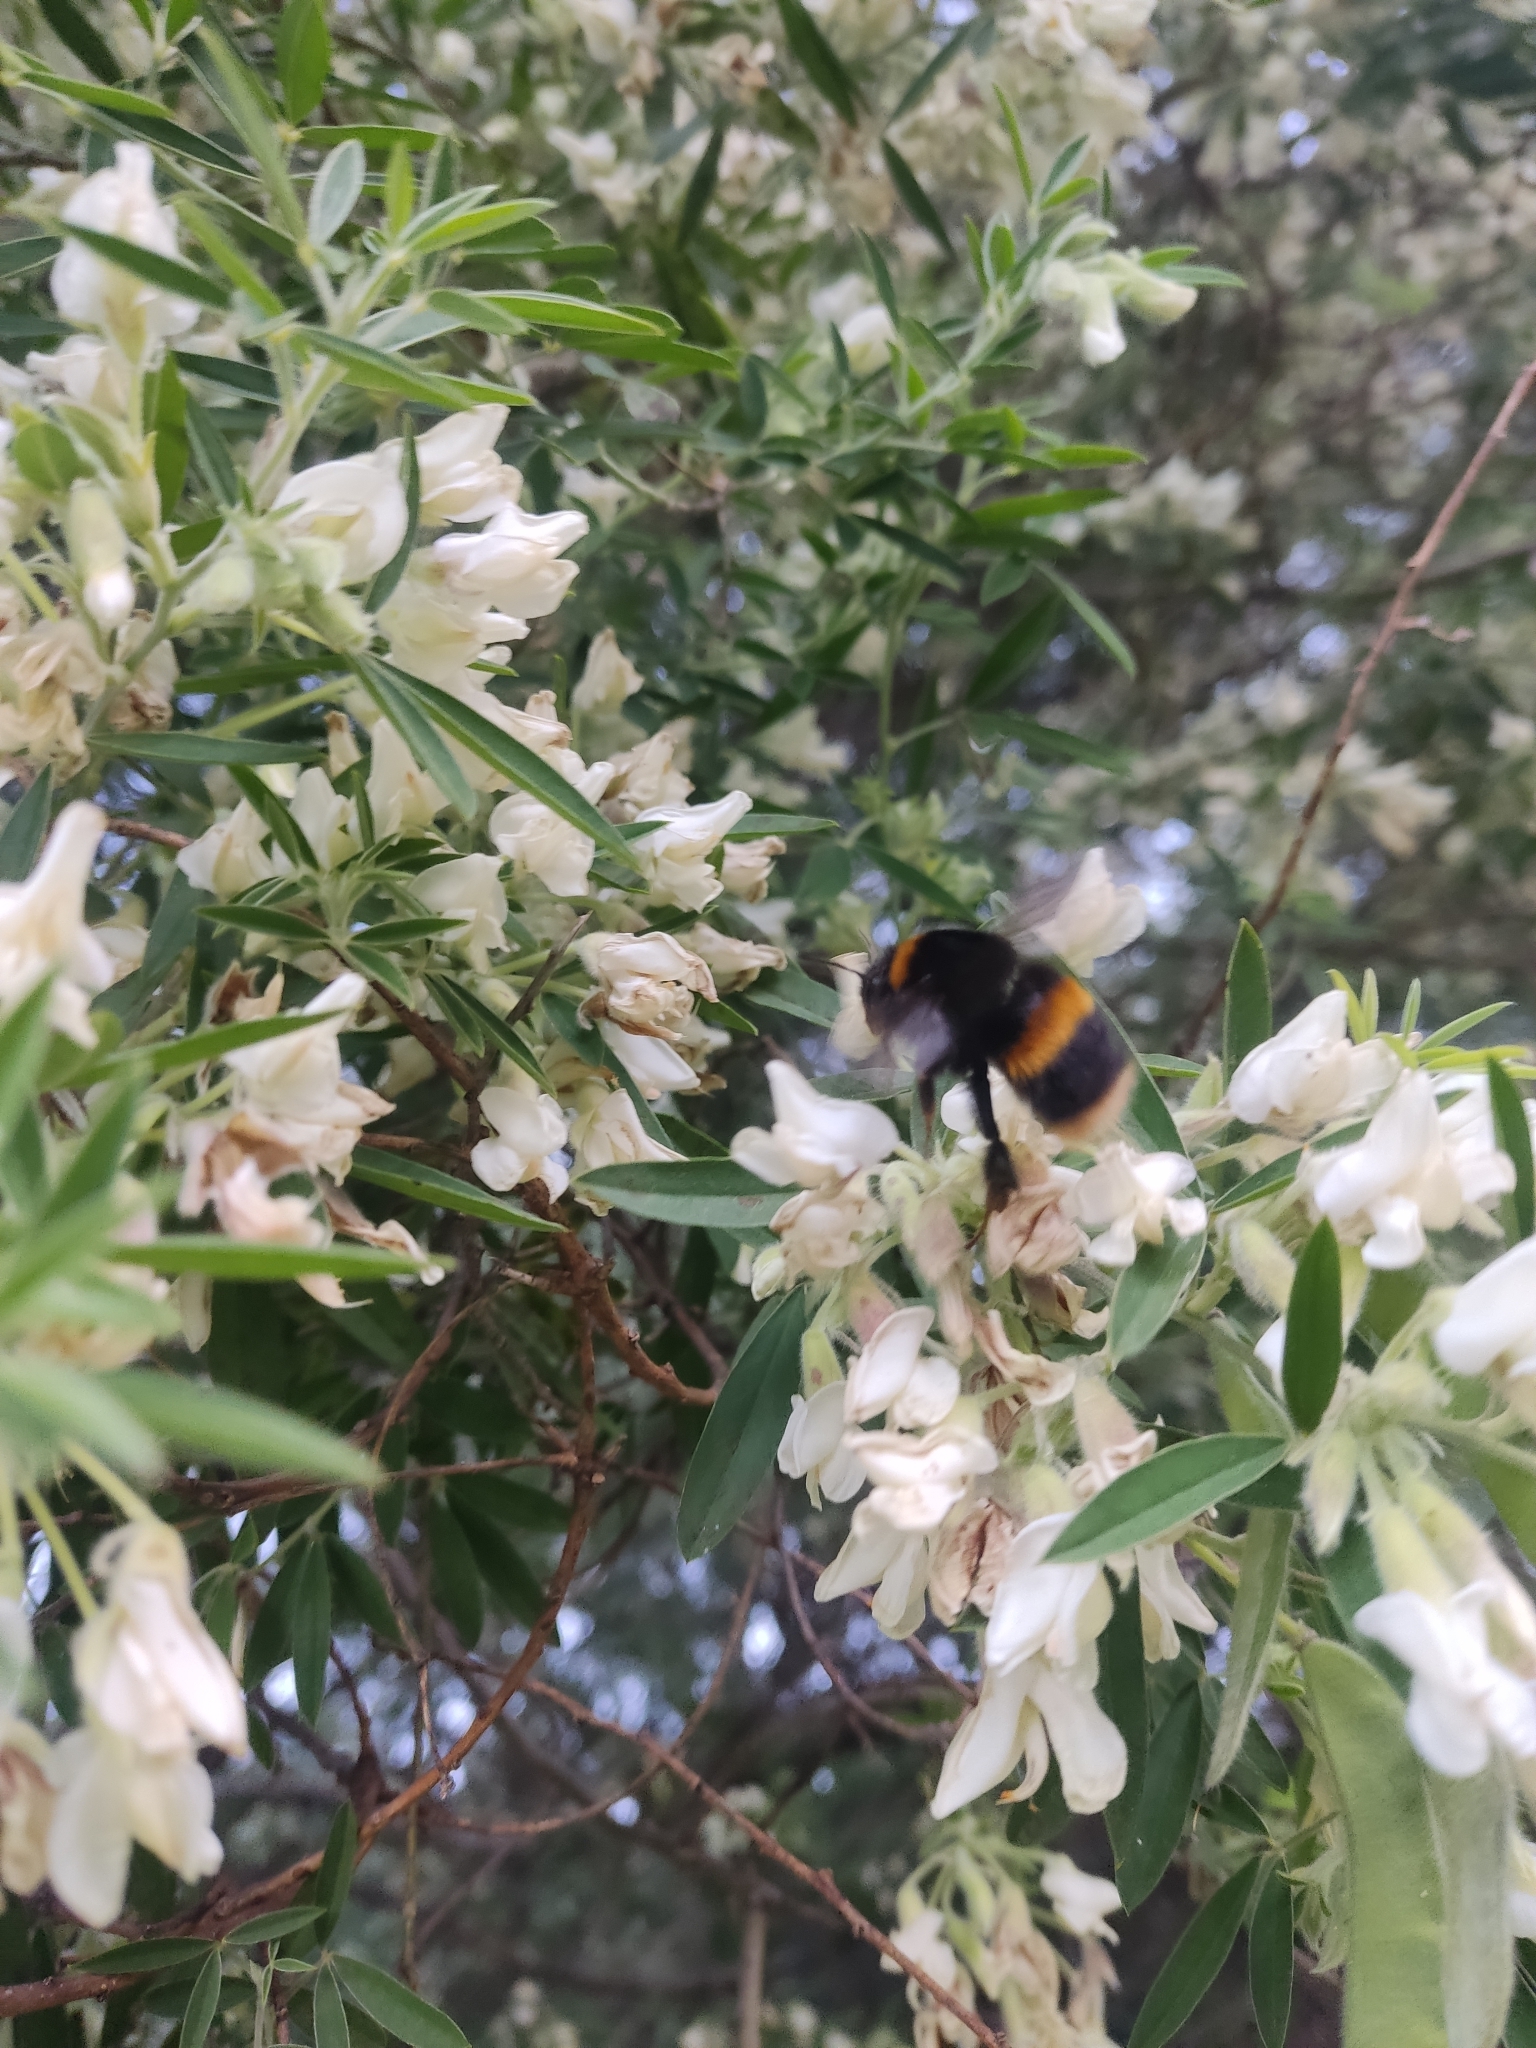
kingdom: Animalia
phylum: Arthropoda
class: Insecta
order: Hymenoptera
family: Apidae
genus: Bombus
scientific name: Bombus terrestris
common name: Buff-tailed bumblebee
